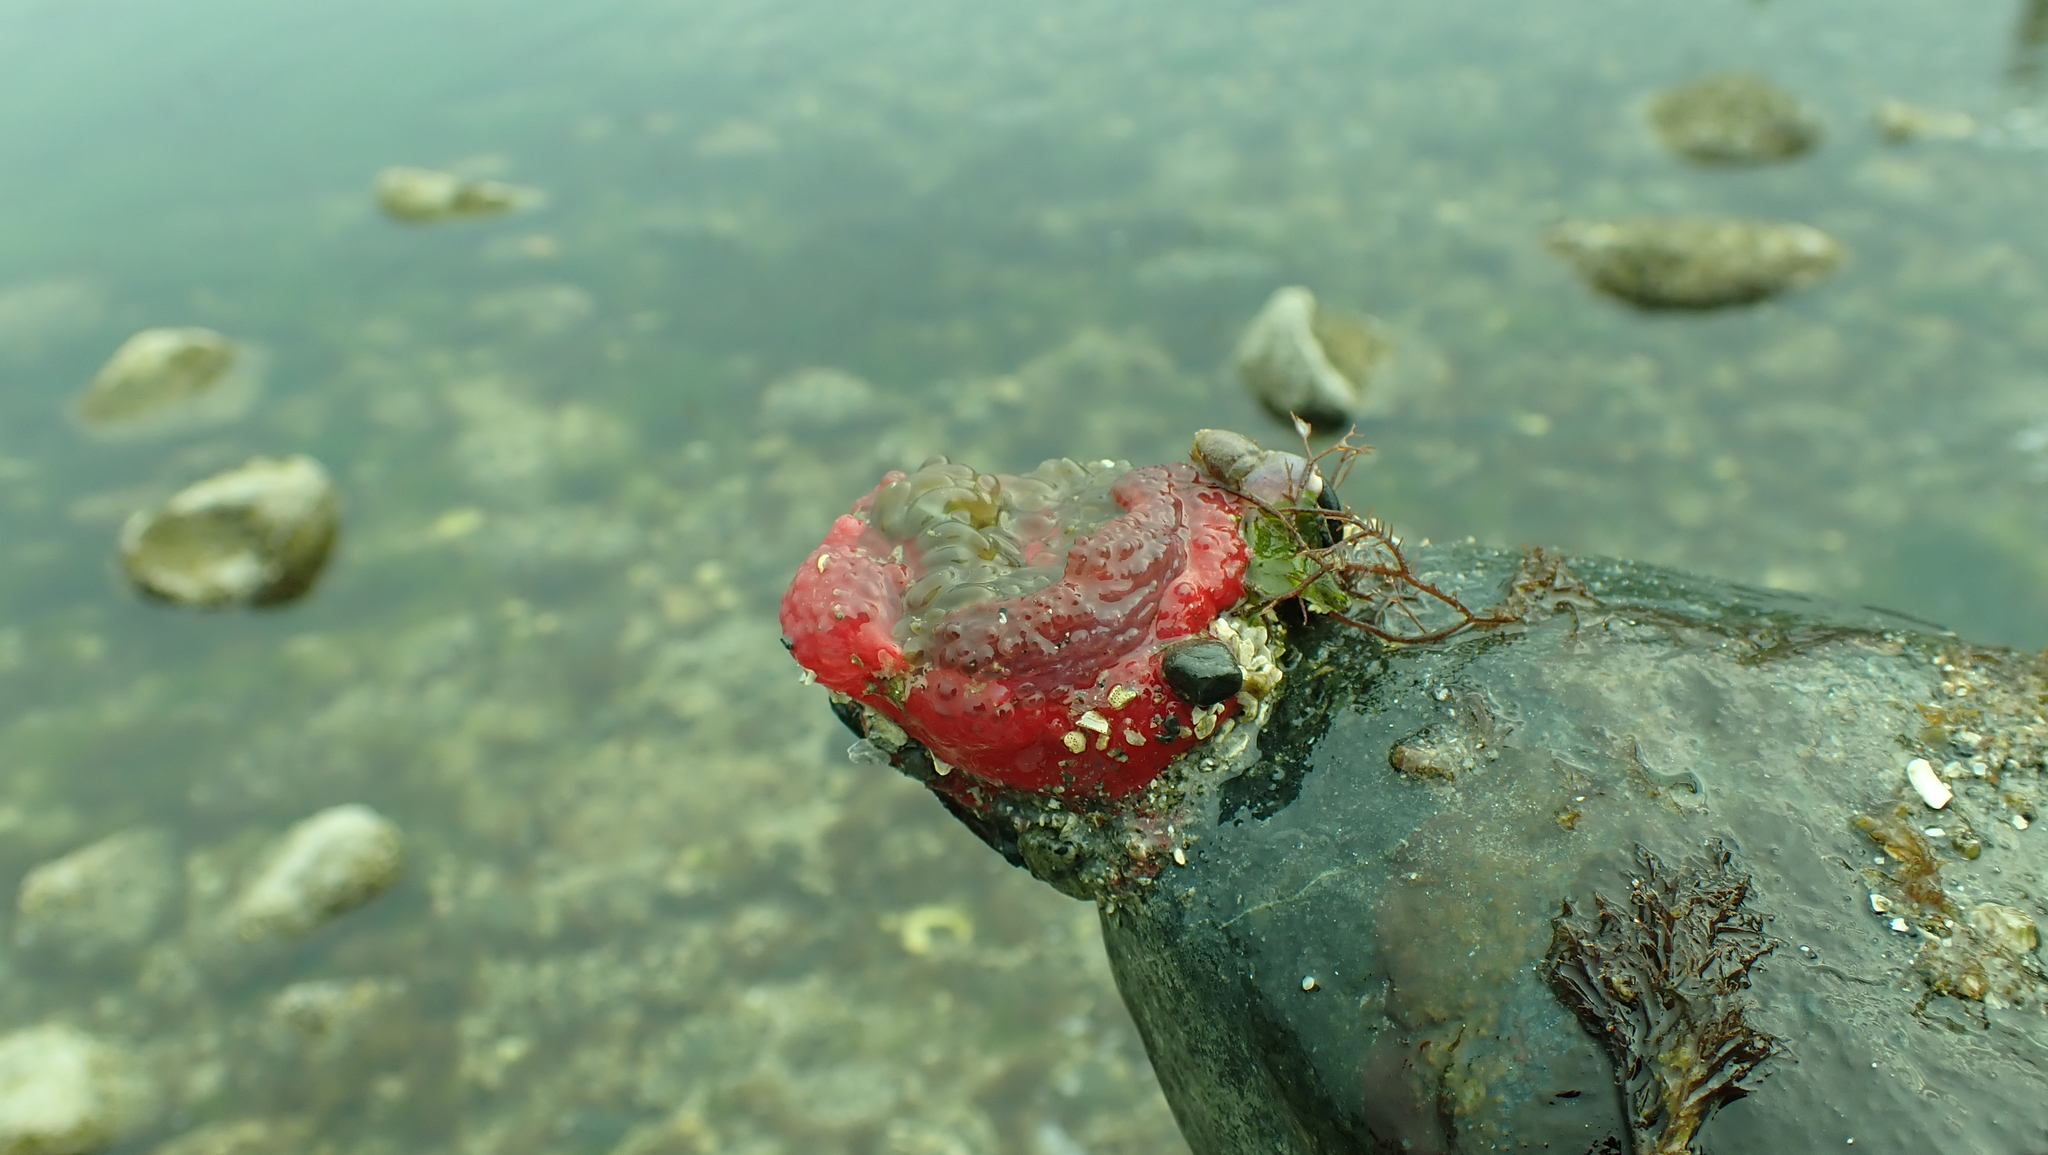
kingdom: Animalia
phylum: Cnidaria
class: Anthozoa
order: Actiniaria
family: Actiniidae
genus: Urticina
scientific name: Urticina clandestina
